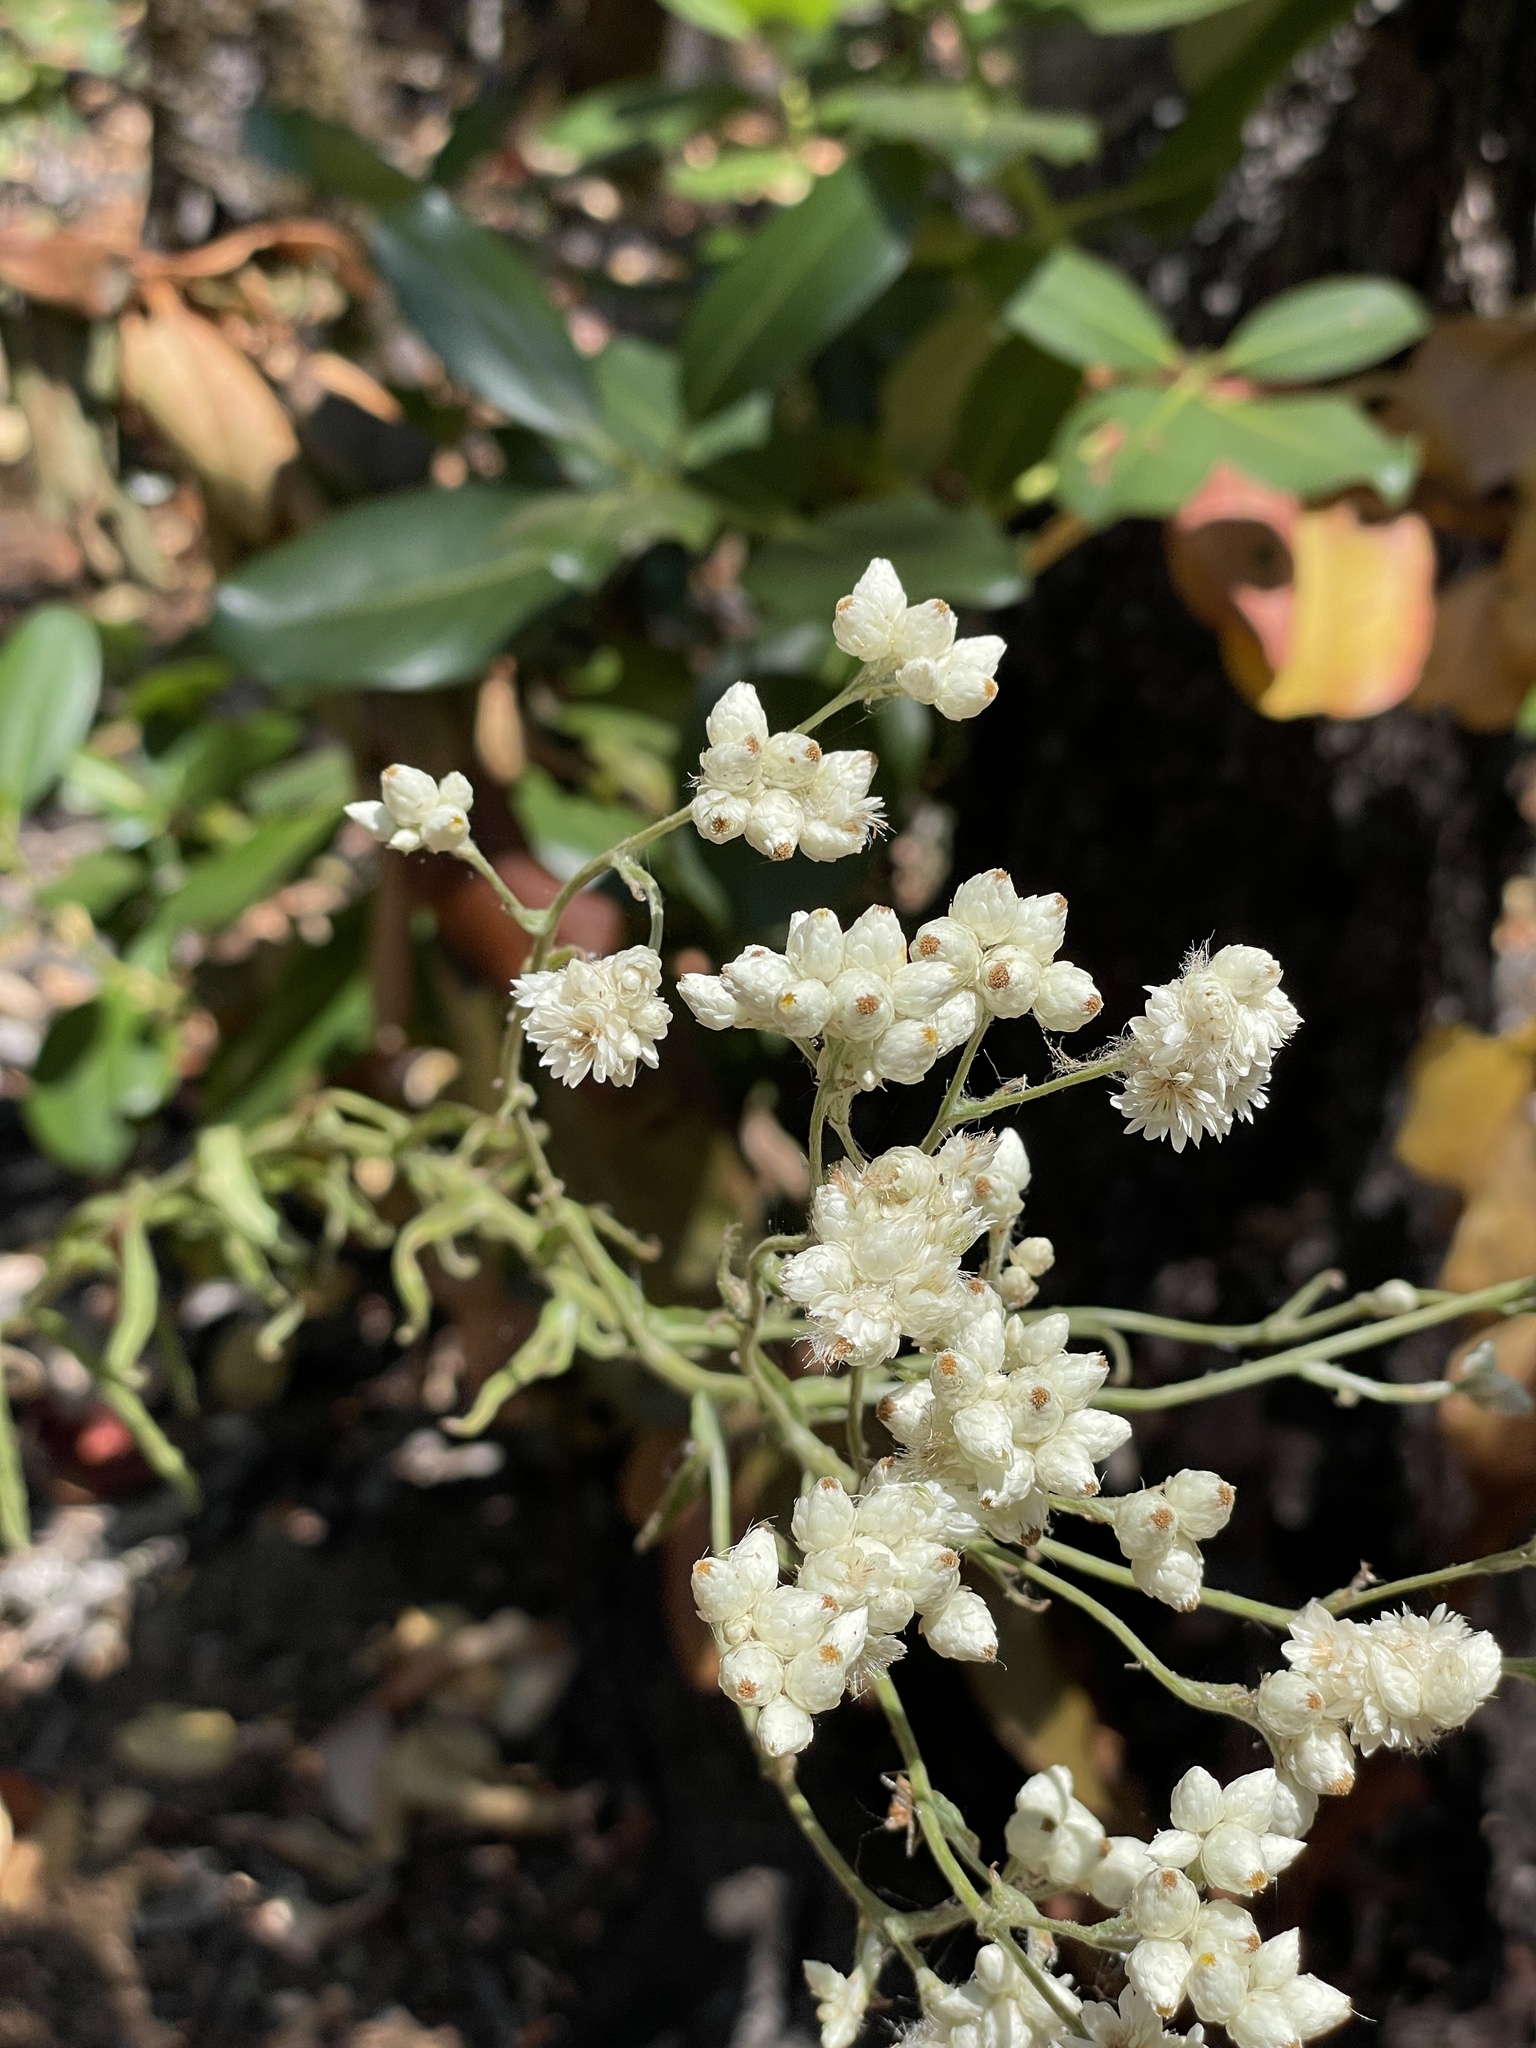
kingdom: Plantae
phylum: Tracheophyta
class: Magnoliopsida
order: Asterales
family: Asteraceae
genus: Pseudognaphalium
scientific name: Pseudognaphalium californicum
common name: California rabbit-tobacco
